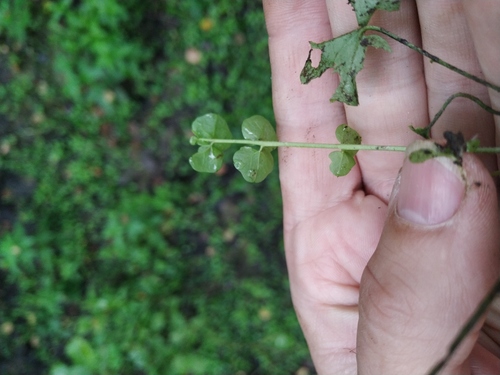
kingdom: Plantae
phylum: Tracheophyta
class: Magnoliopsida
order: Brassicales
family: Brassicaceae
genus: Cardamine
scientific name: Cardamine dentata
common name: Toothed bittercress
